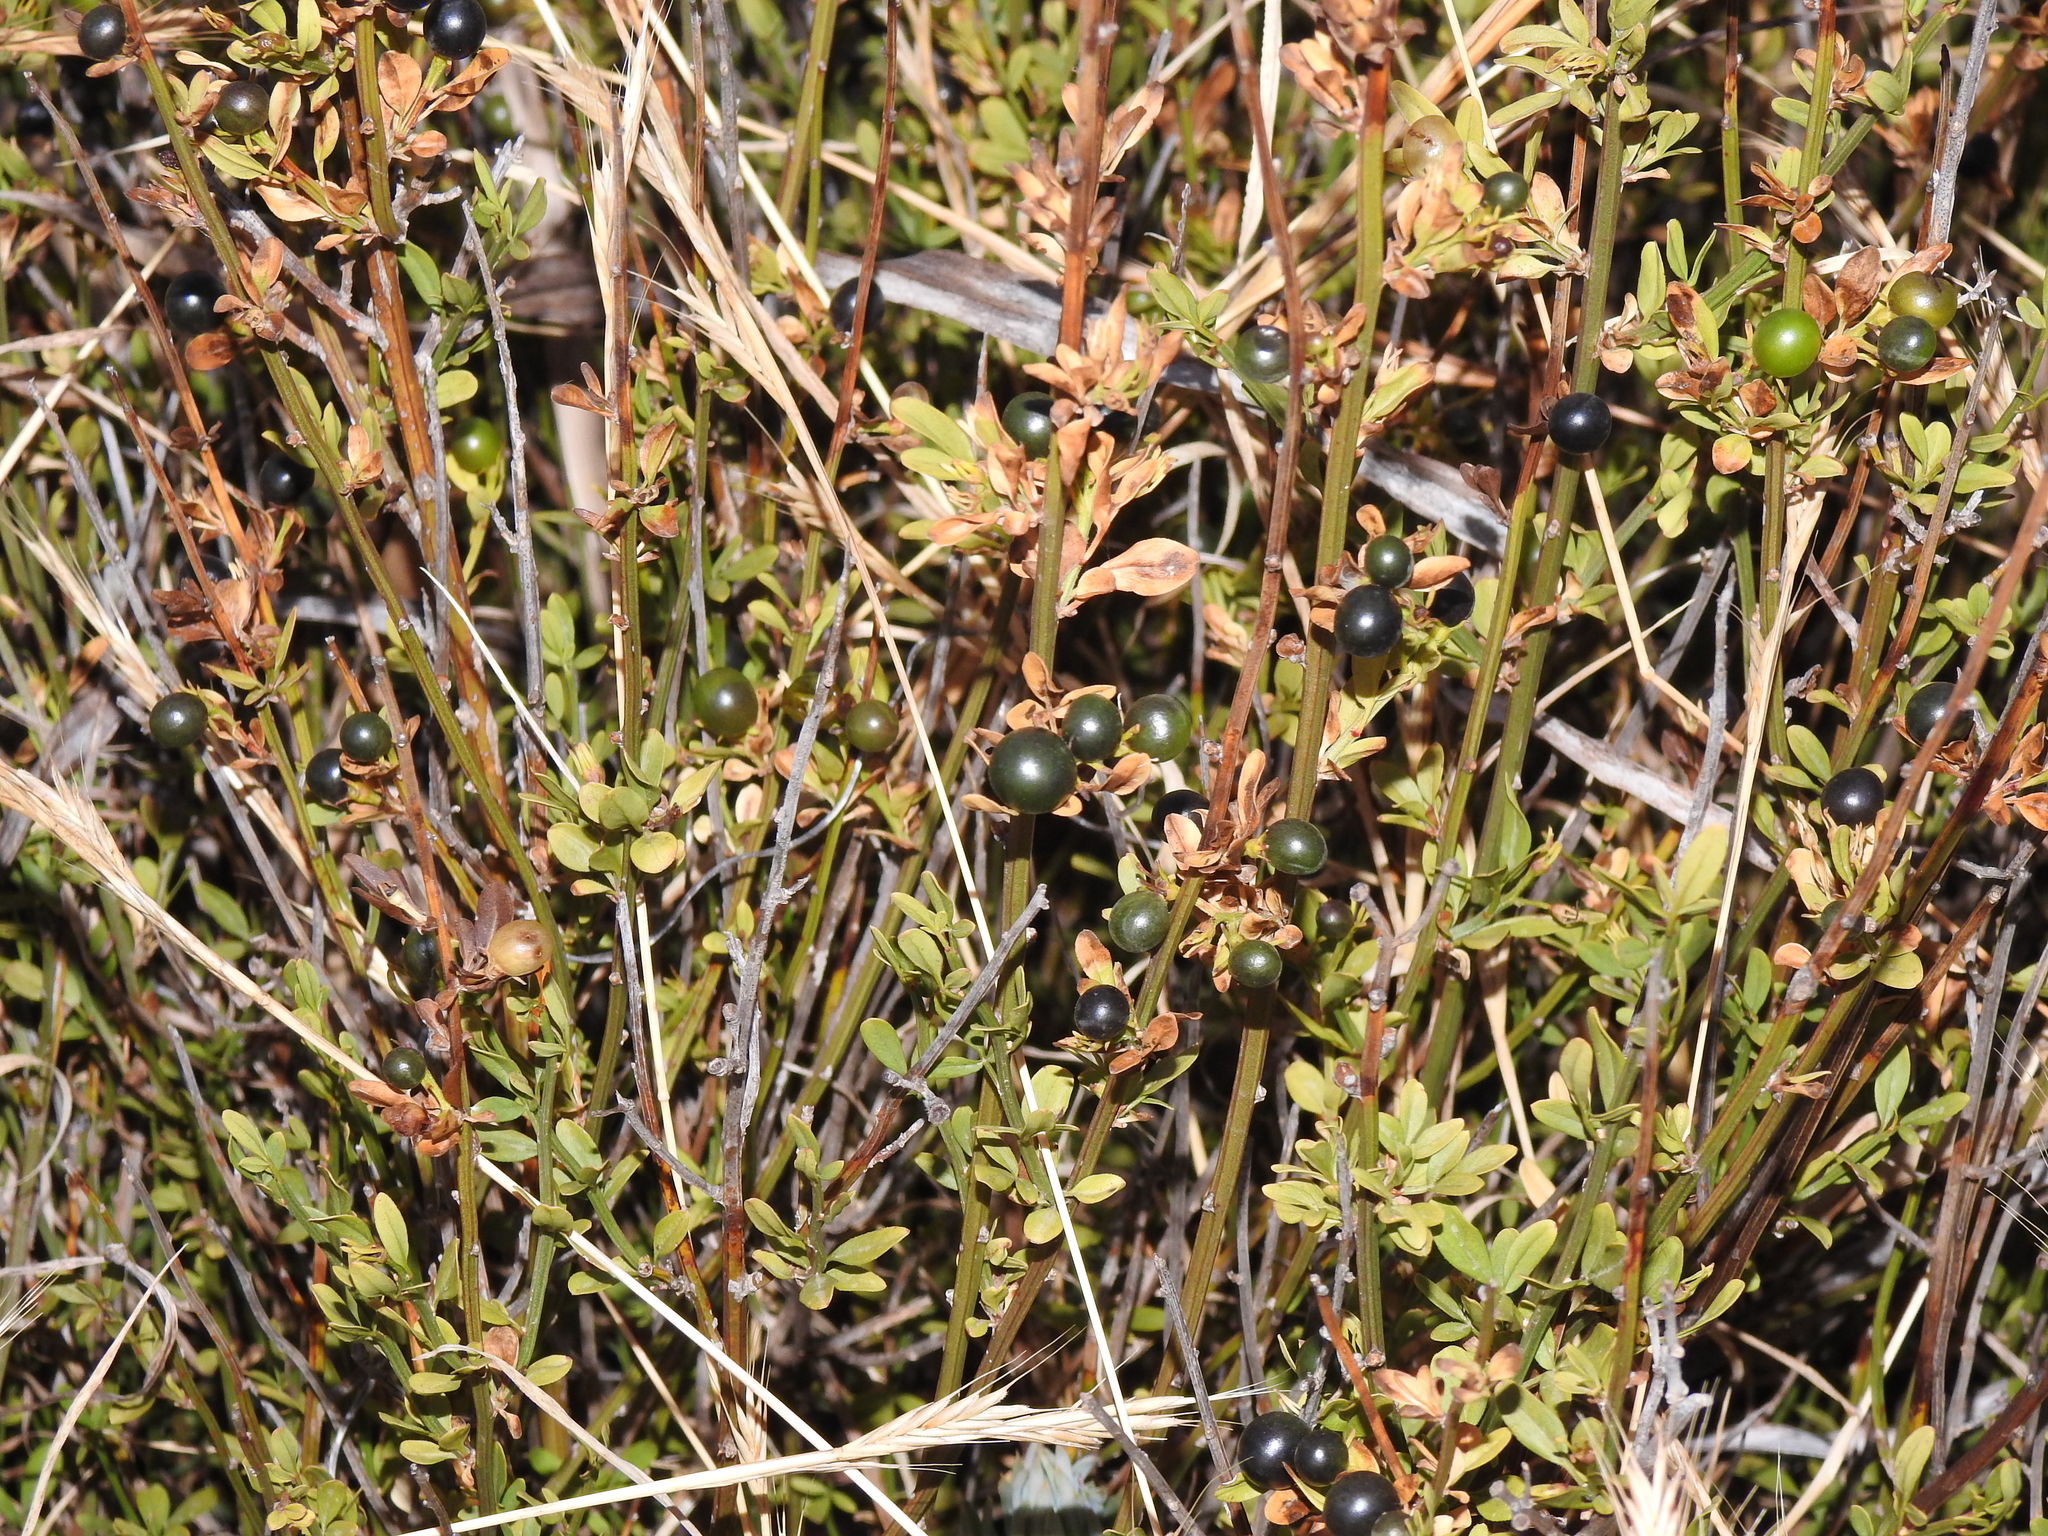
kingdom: Plantae
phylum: Tracheophyta
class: Magnoliopsida
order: Lamiales
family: Oleaceae
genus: Chrysojasminum
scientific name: Chrysojasminum fruticans
